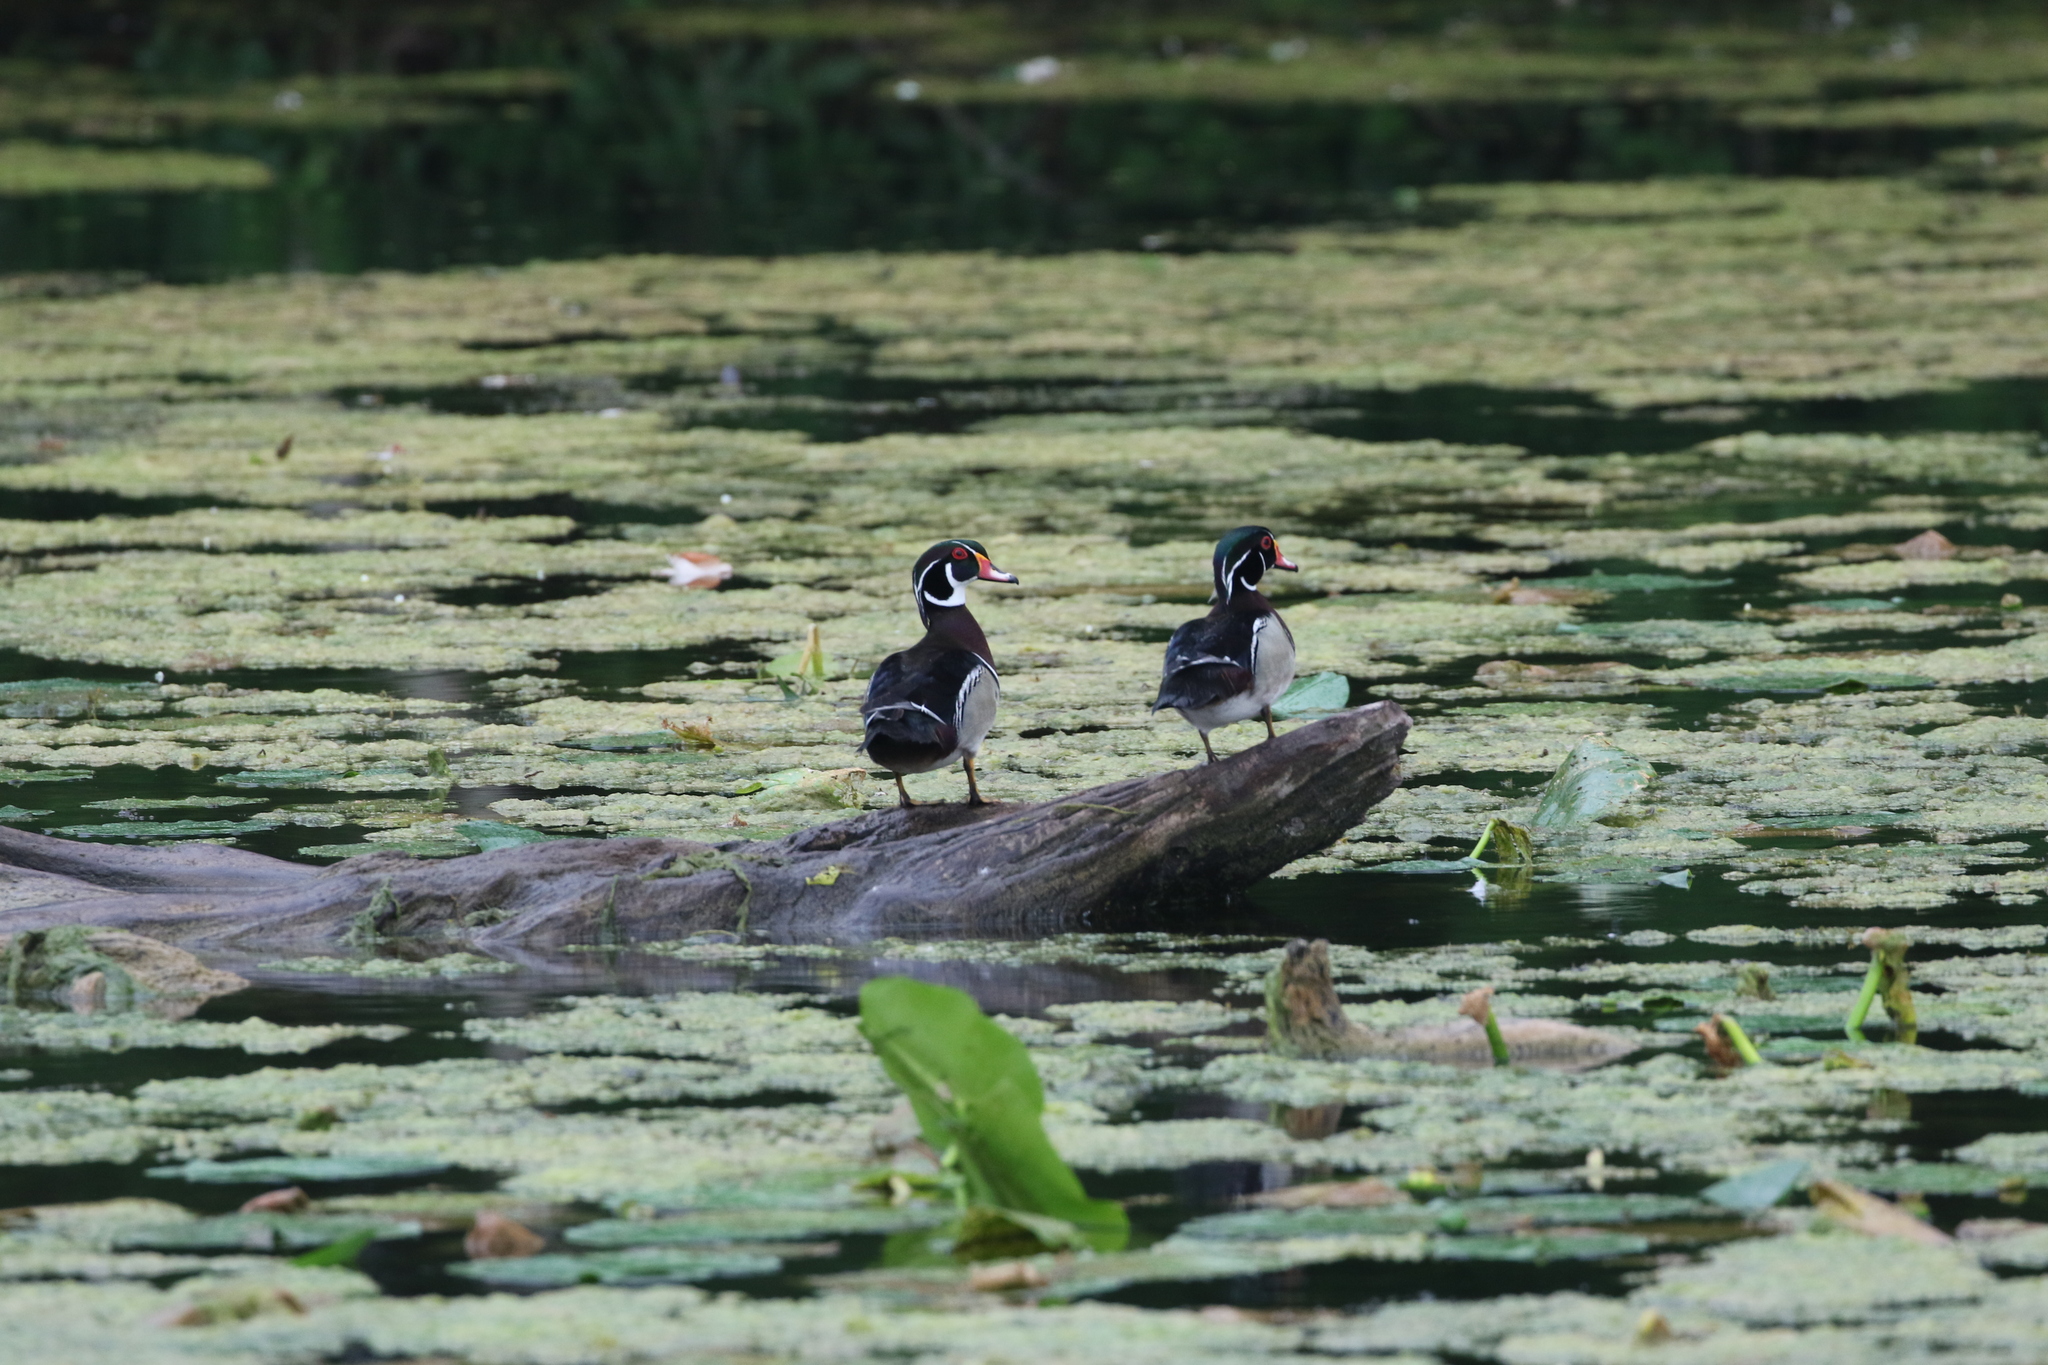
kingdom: Animalia
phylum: Chordata
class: Aves
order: Anseriformes
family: Anatidae
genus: Aix
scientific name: Aix sponsa
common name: Wood duck
